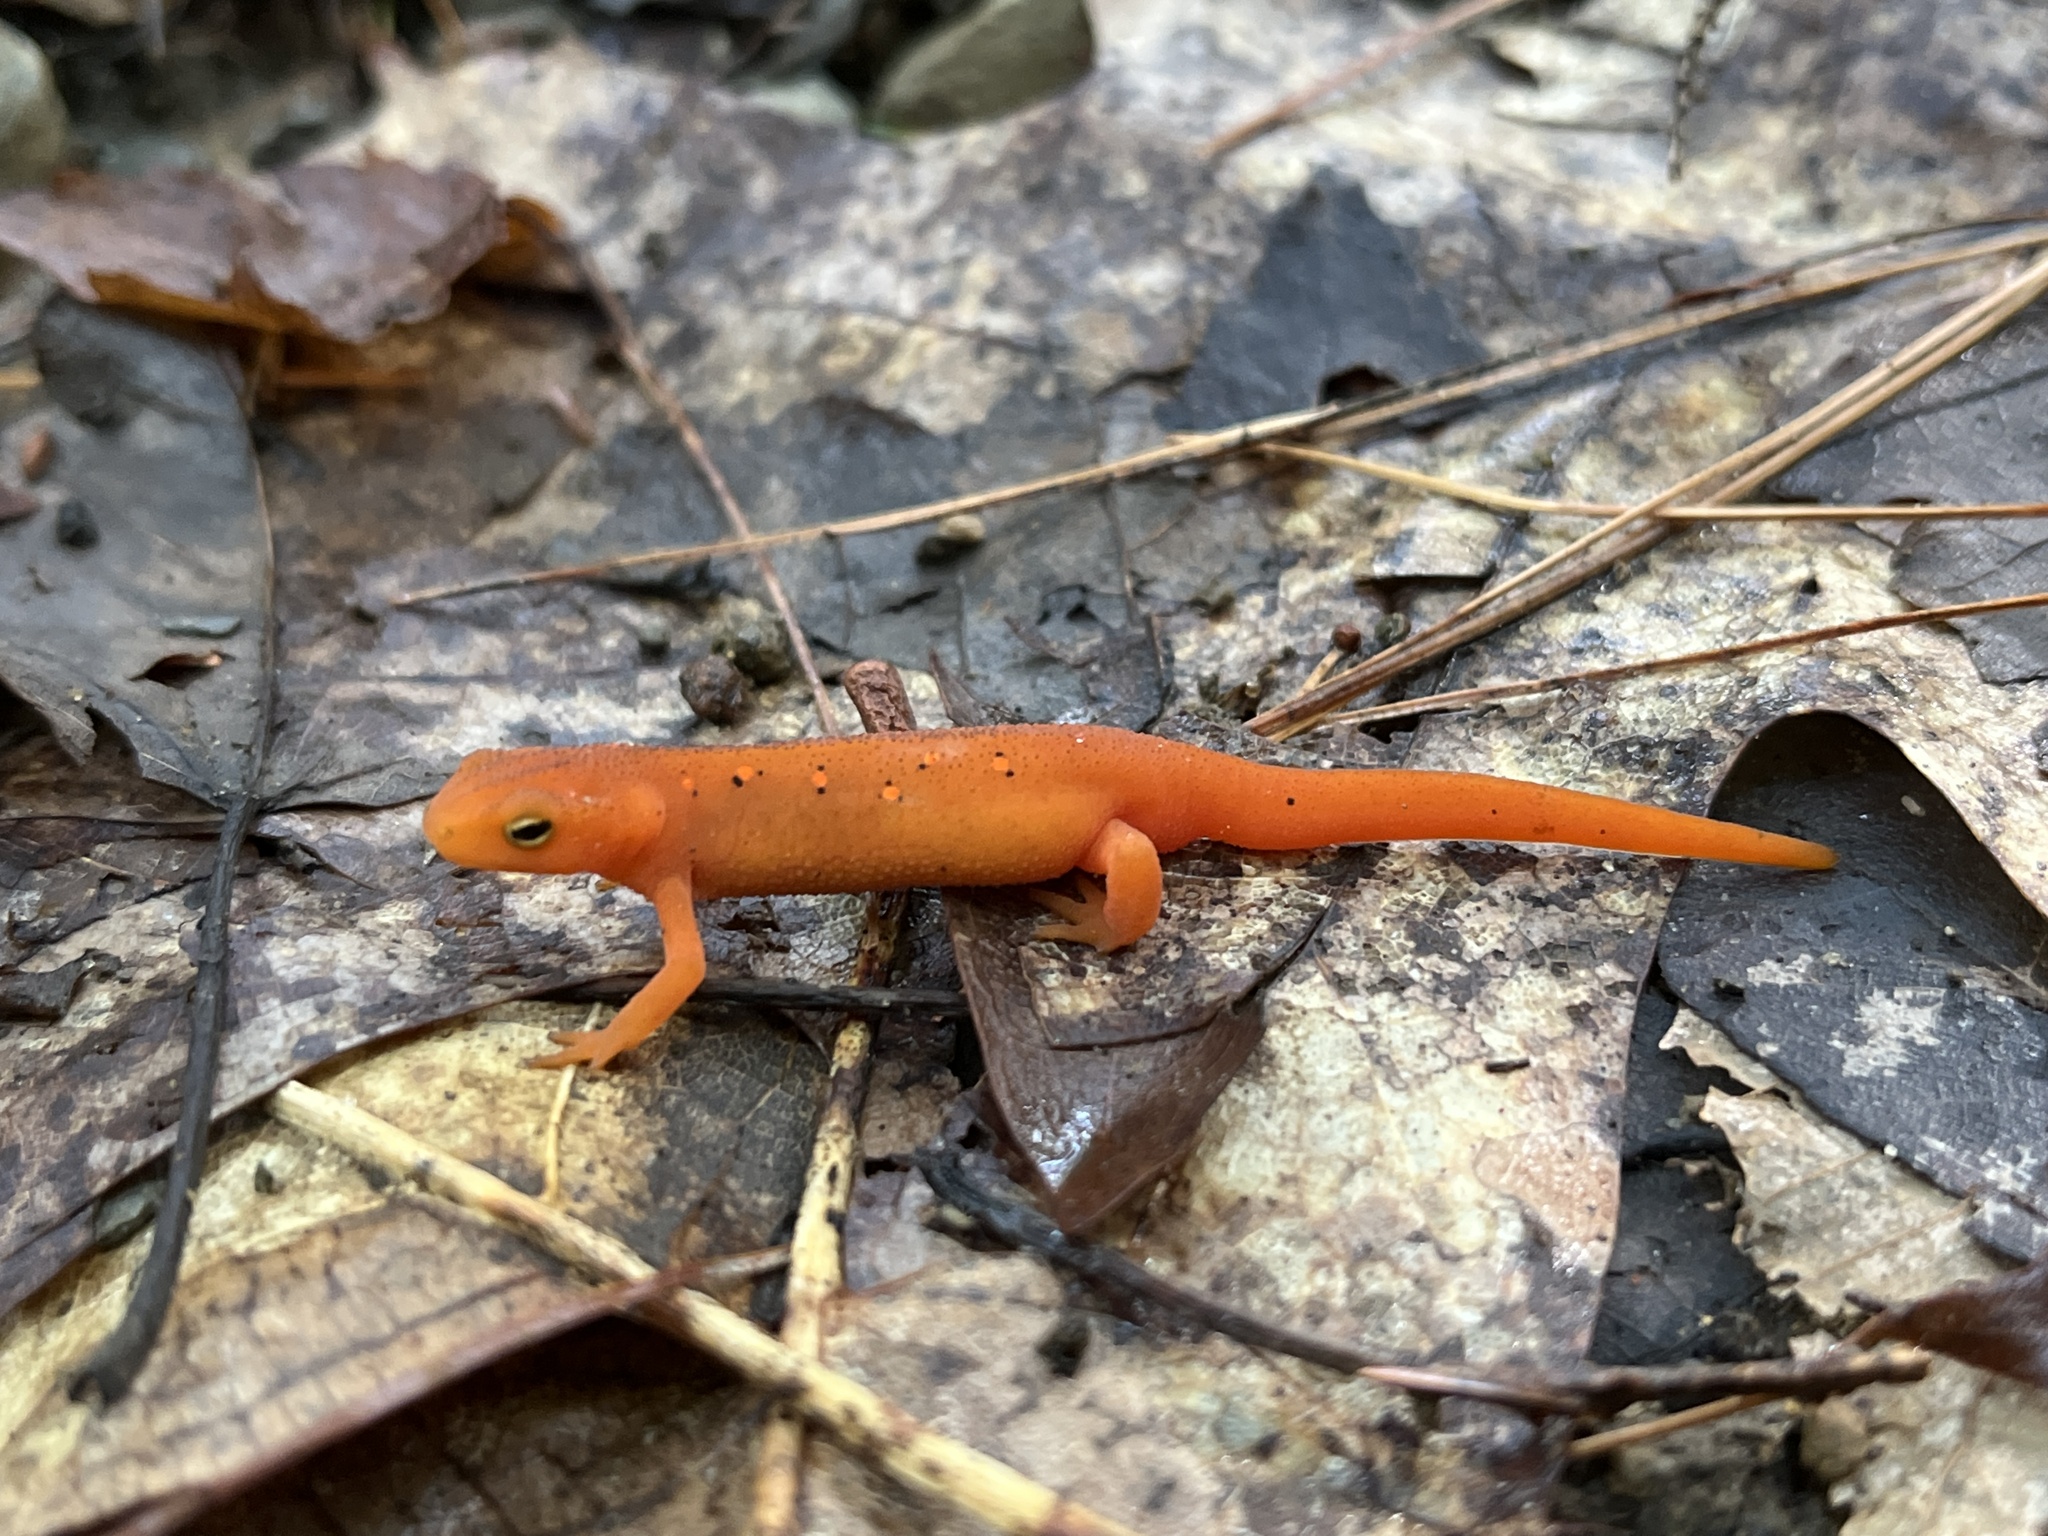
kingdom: Animalia
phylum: Chordata
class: Amphibia
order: Caudata
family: Salamandridae
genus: Notophthalmus
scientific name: Notophthalmus viridescens
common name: Eastern newt
